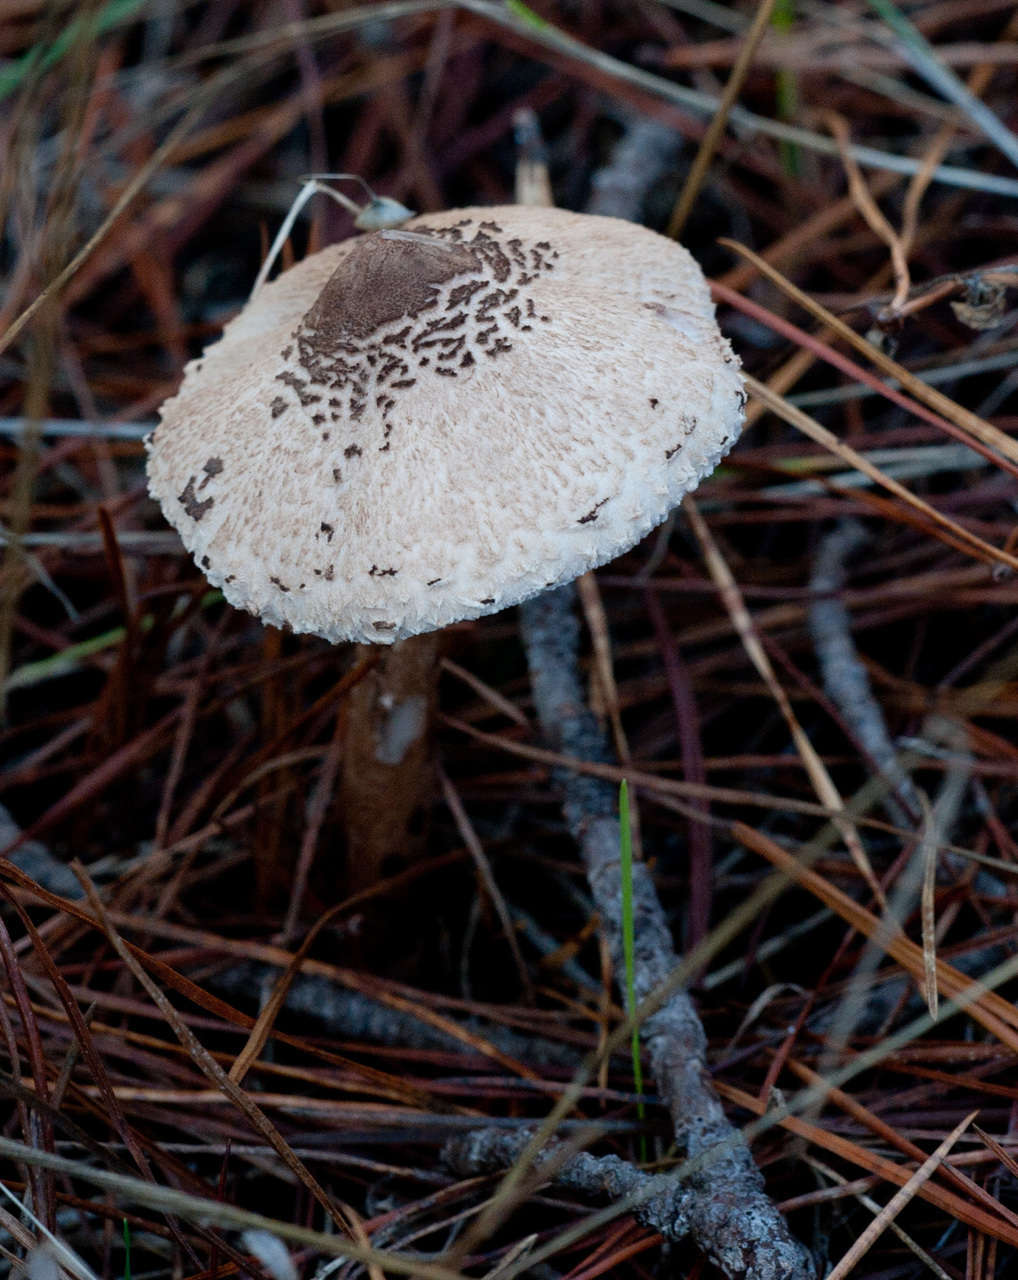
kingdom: Fungi
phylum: Basidiomycota
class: Agaricomycetes
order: Agaricales
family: Agaricaceae
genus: Macrolepiota
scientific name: Macrolepiota clelandii
